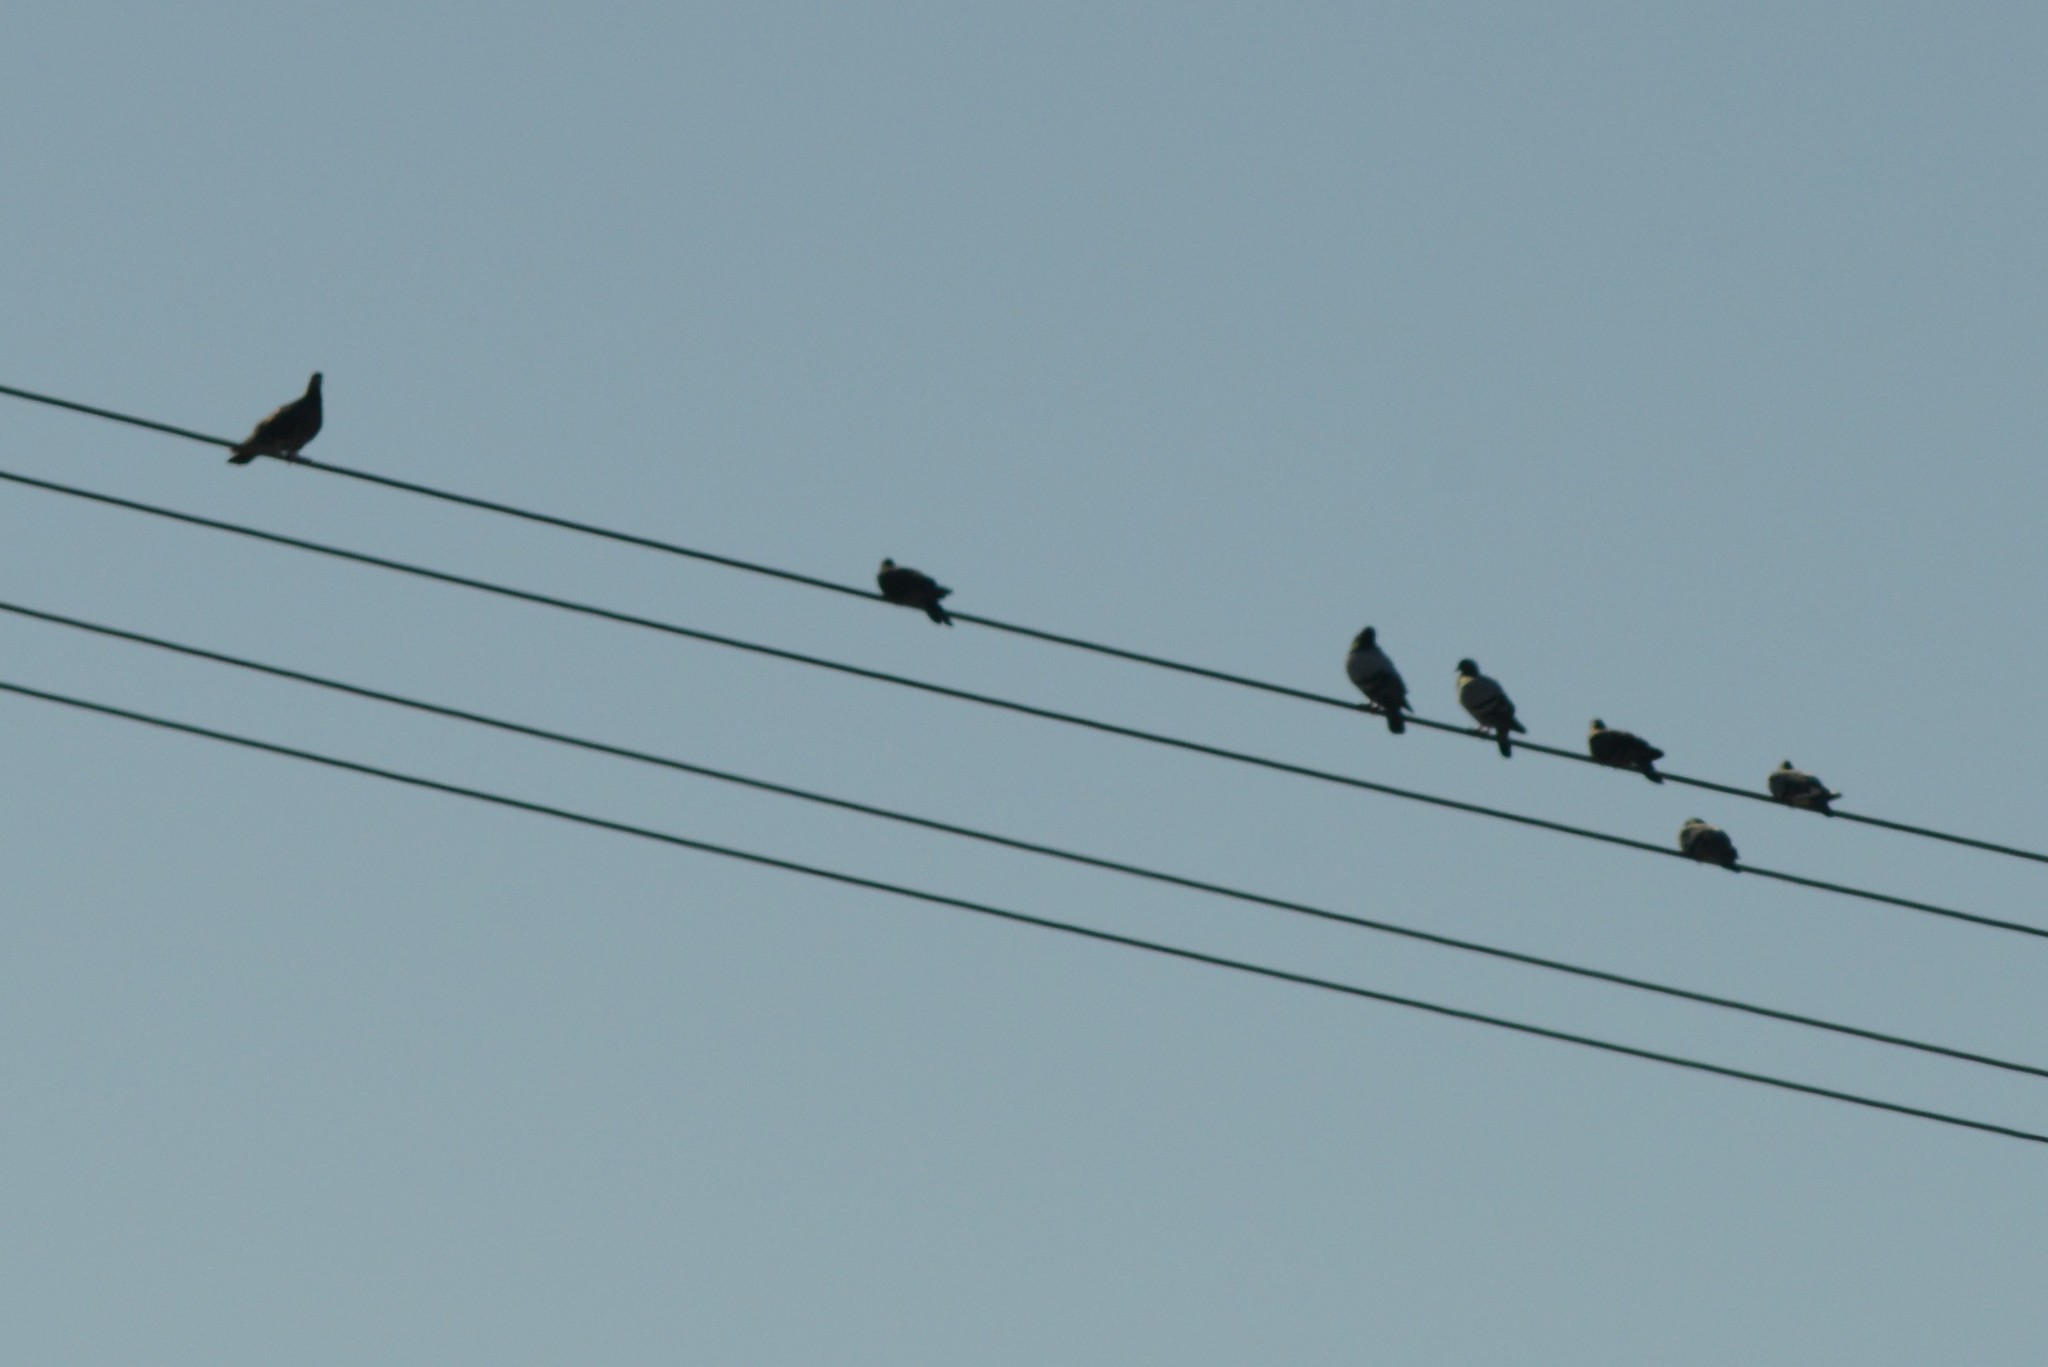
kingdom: Animalia
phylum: Chordata
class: Aves
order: Columbiformes
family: Columbidae
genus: Columba
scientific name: Columba livia
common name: Rock pigeon
